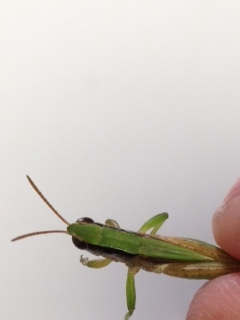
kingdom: Animalia
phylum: Arthropoda
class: Insecta
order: Orthoptera
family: Acrididae
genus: Dichromorpha
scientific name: Dichromorpha viridis
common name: Short-winged green grasshopper
